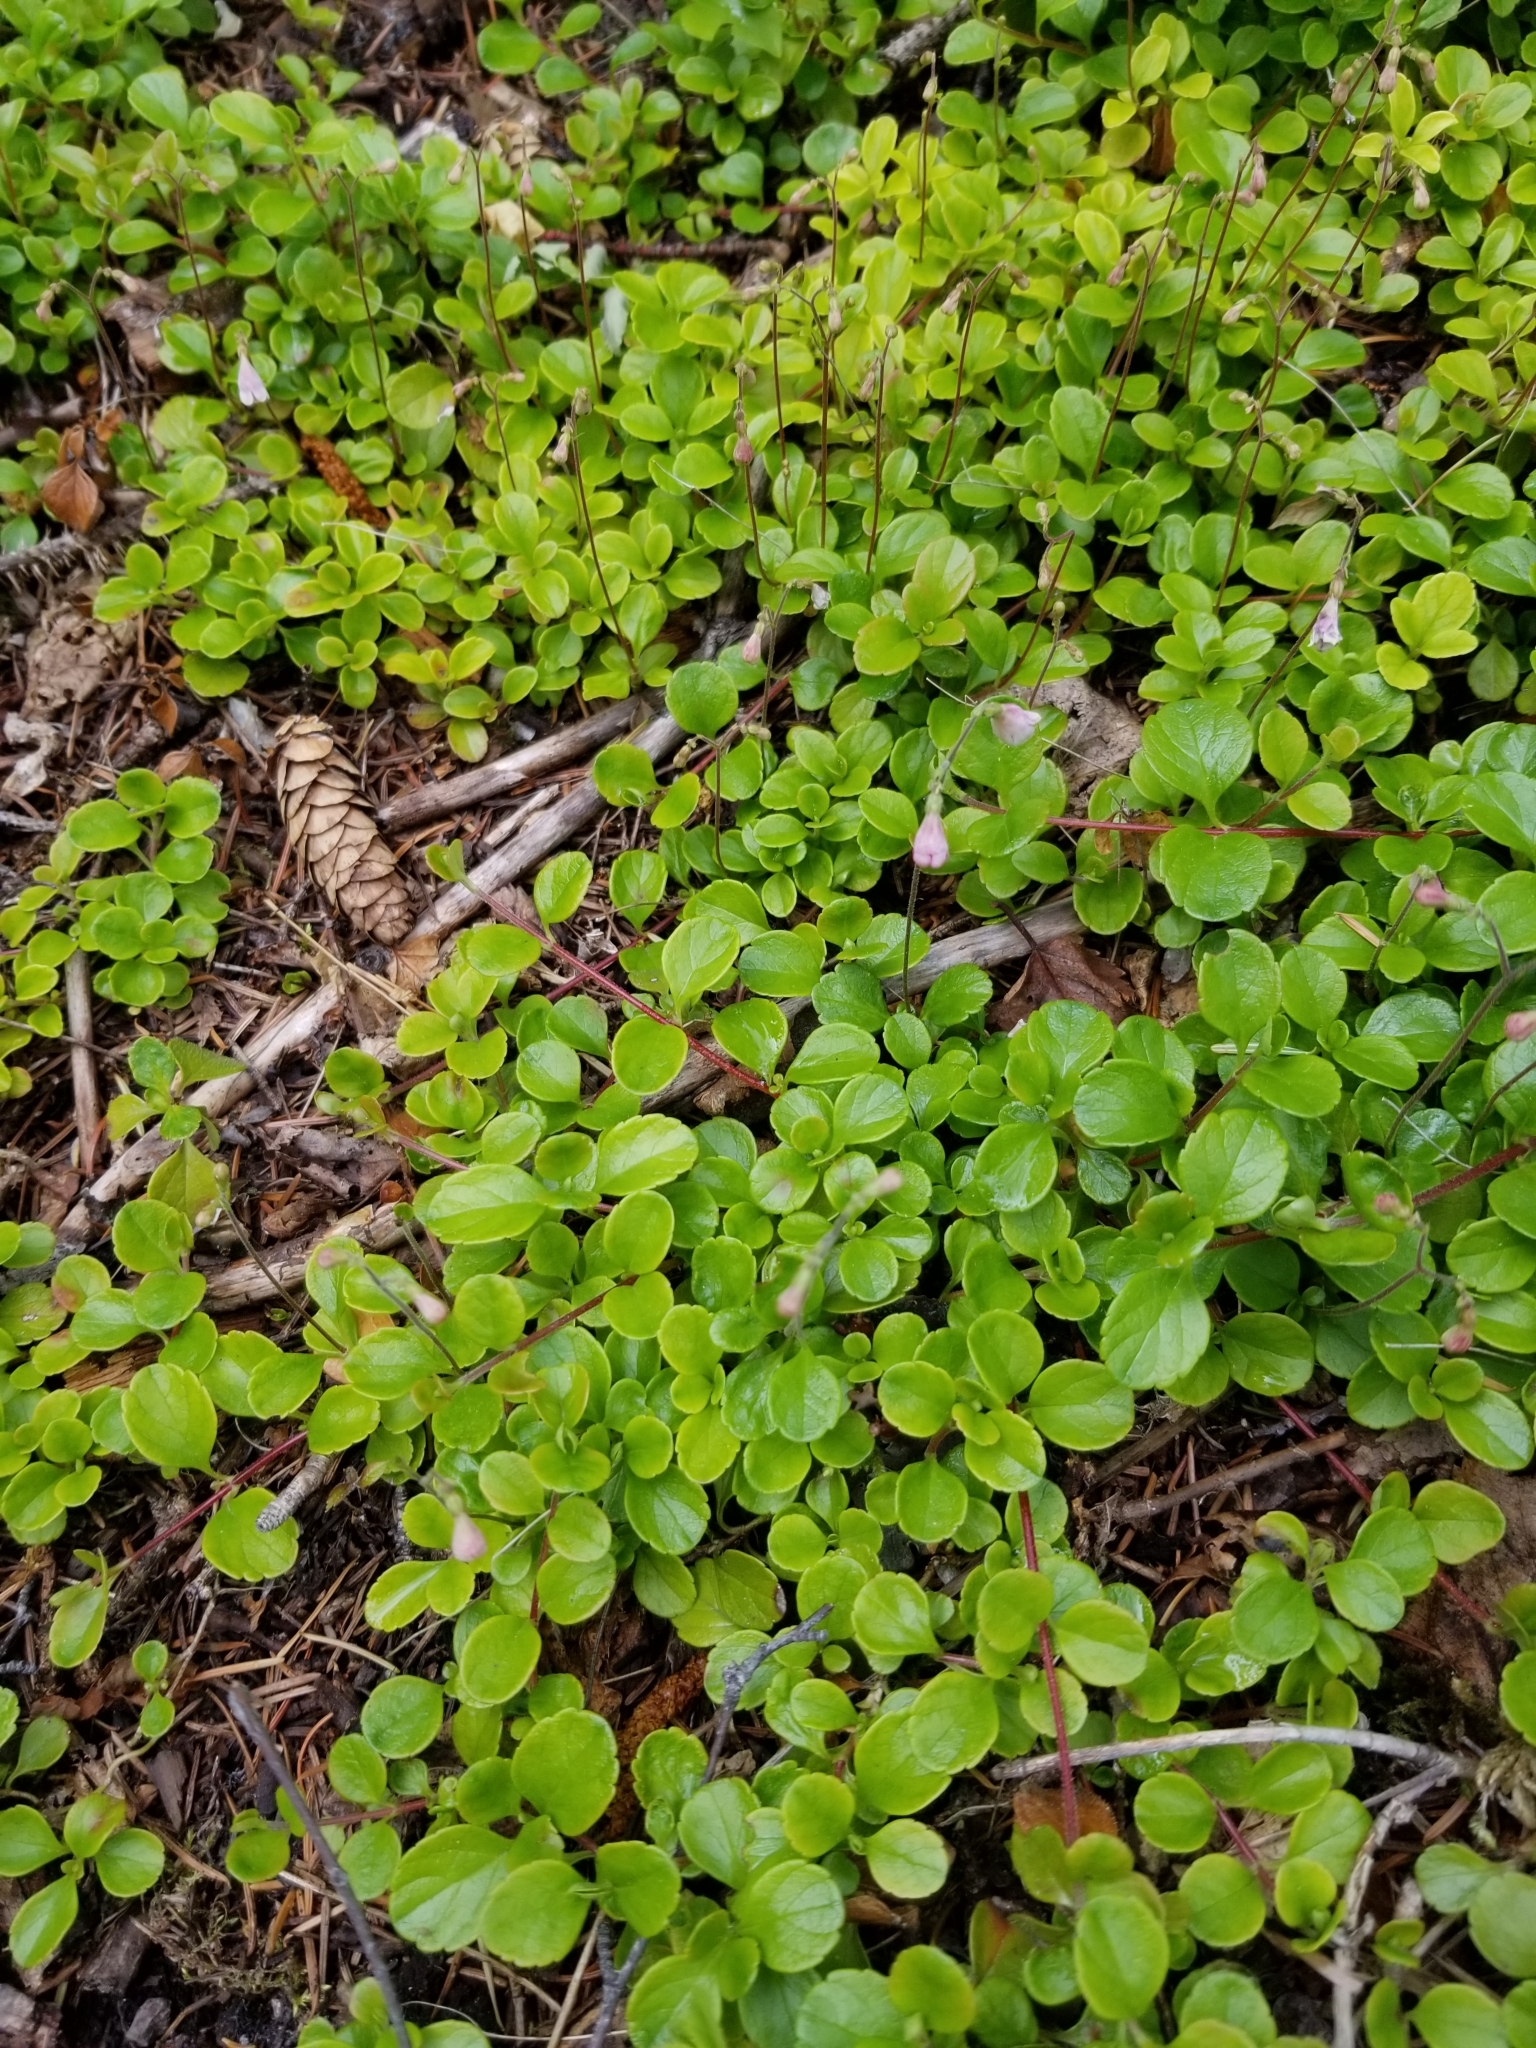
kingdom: Plantae
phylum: Tracheophyta
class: Magnoliopsida
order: Dipsacales
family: Caprifoliaceae
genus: Linnaea
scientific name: Linnaea borealis
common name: Twinflower
